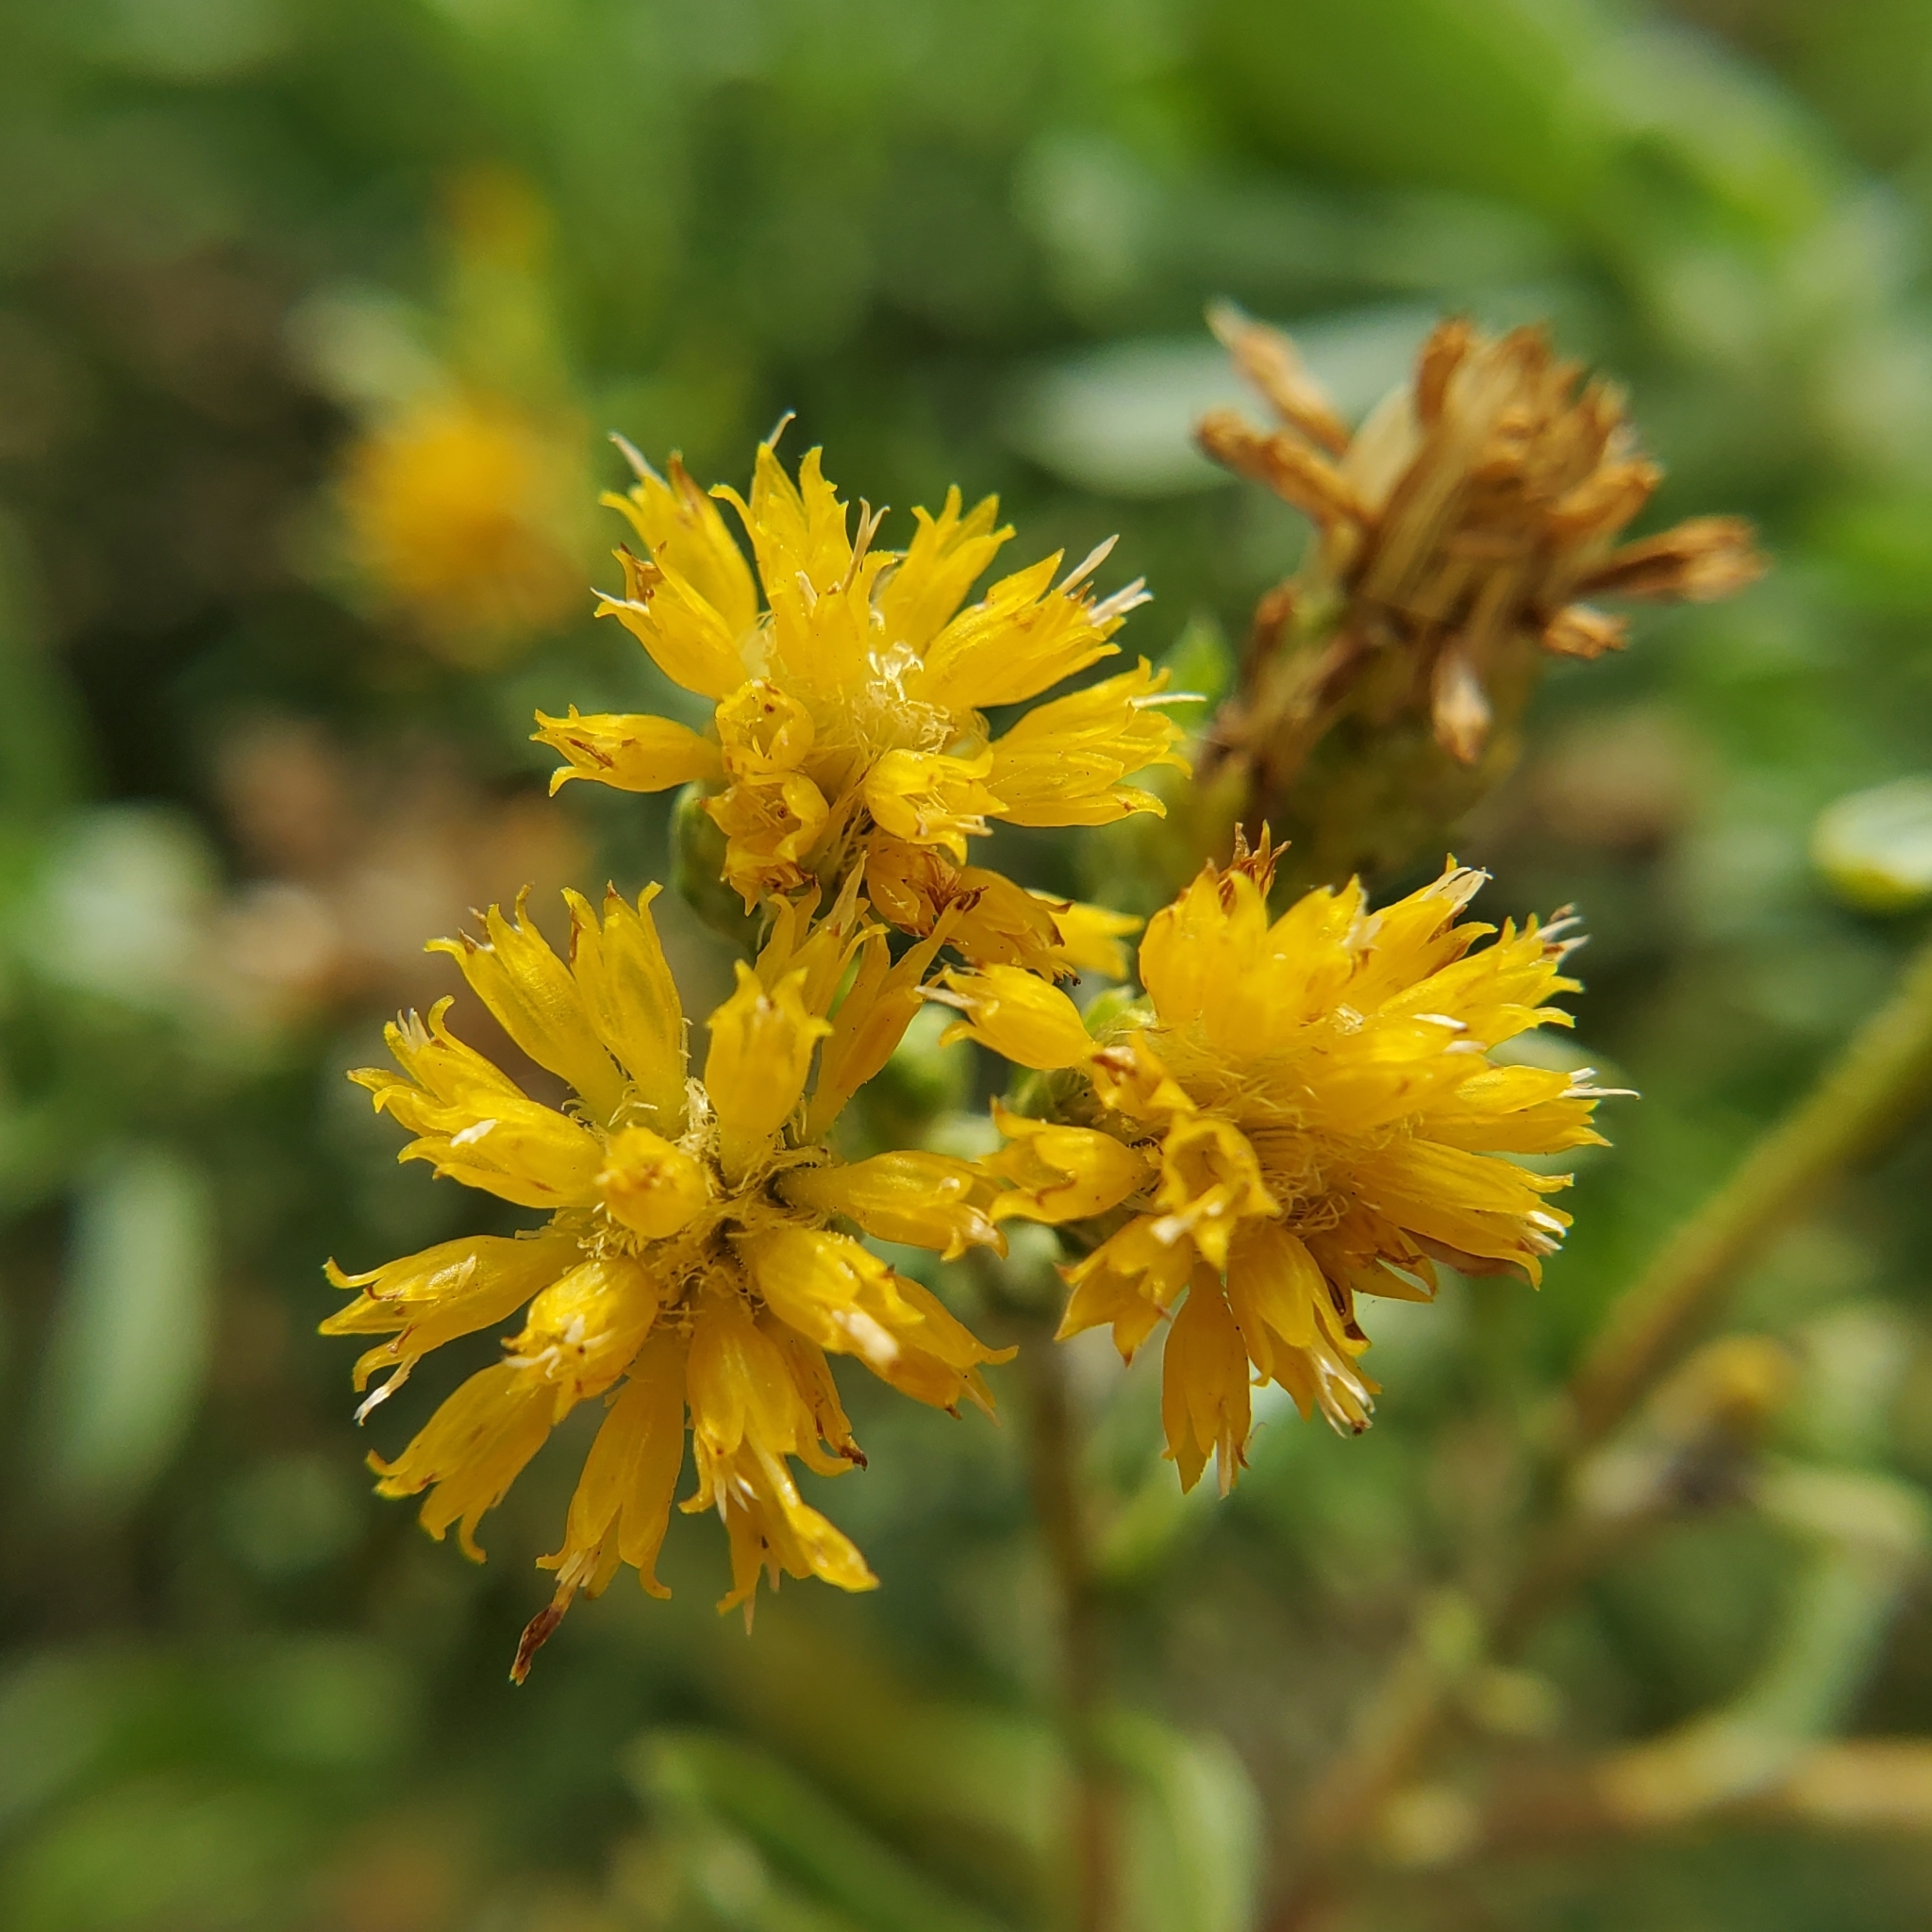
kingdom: Plantae
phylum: Tracheophyta
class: Magnoliopsida
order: Asterales
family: Asteraceae
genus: Isocoma
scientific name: Isocoma menziesii
